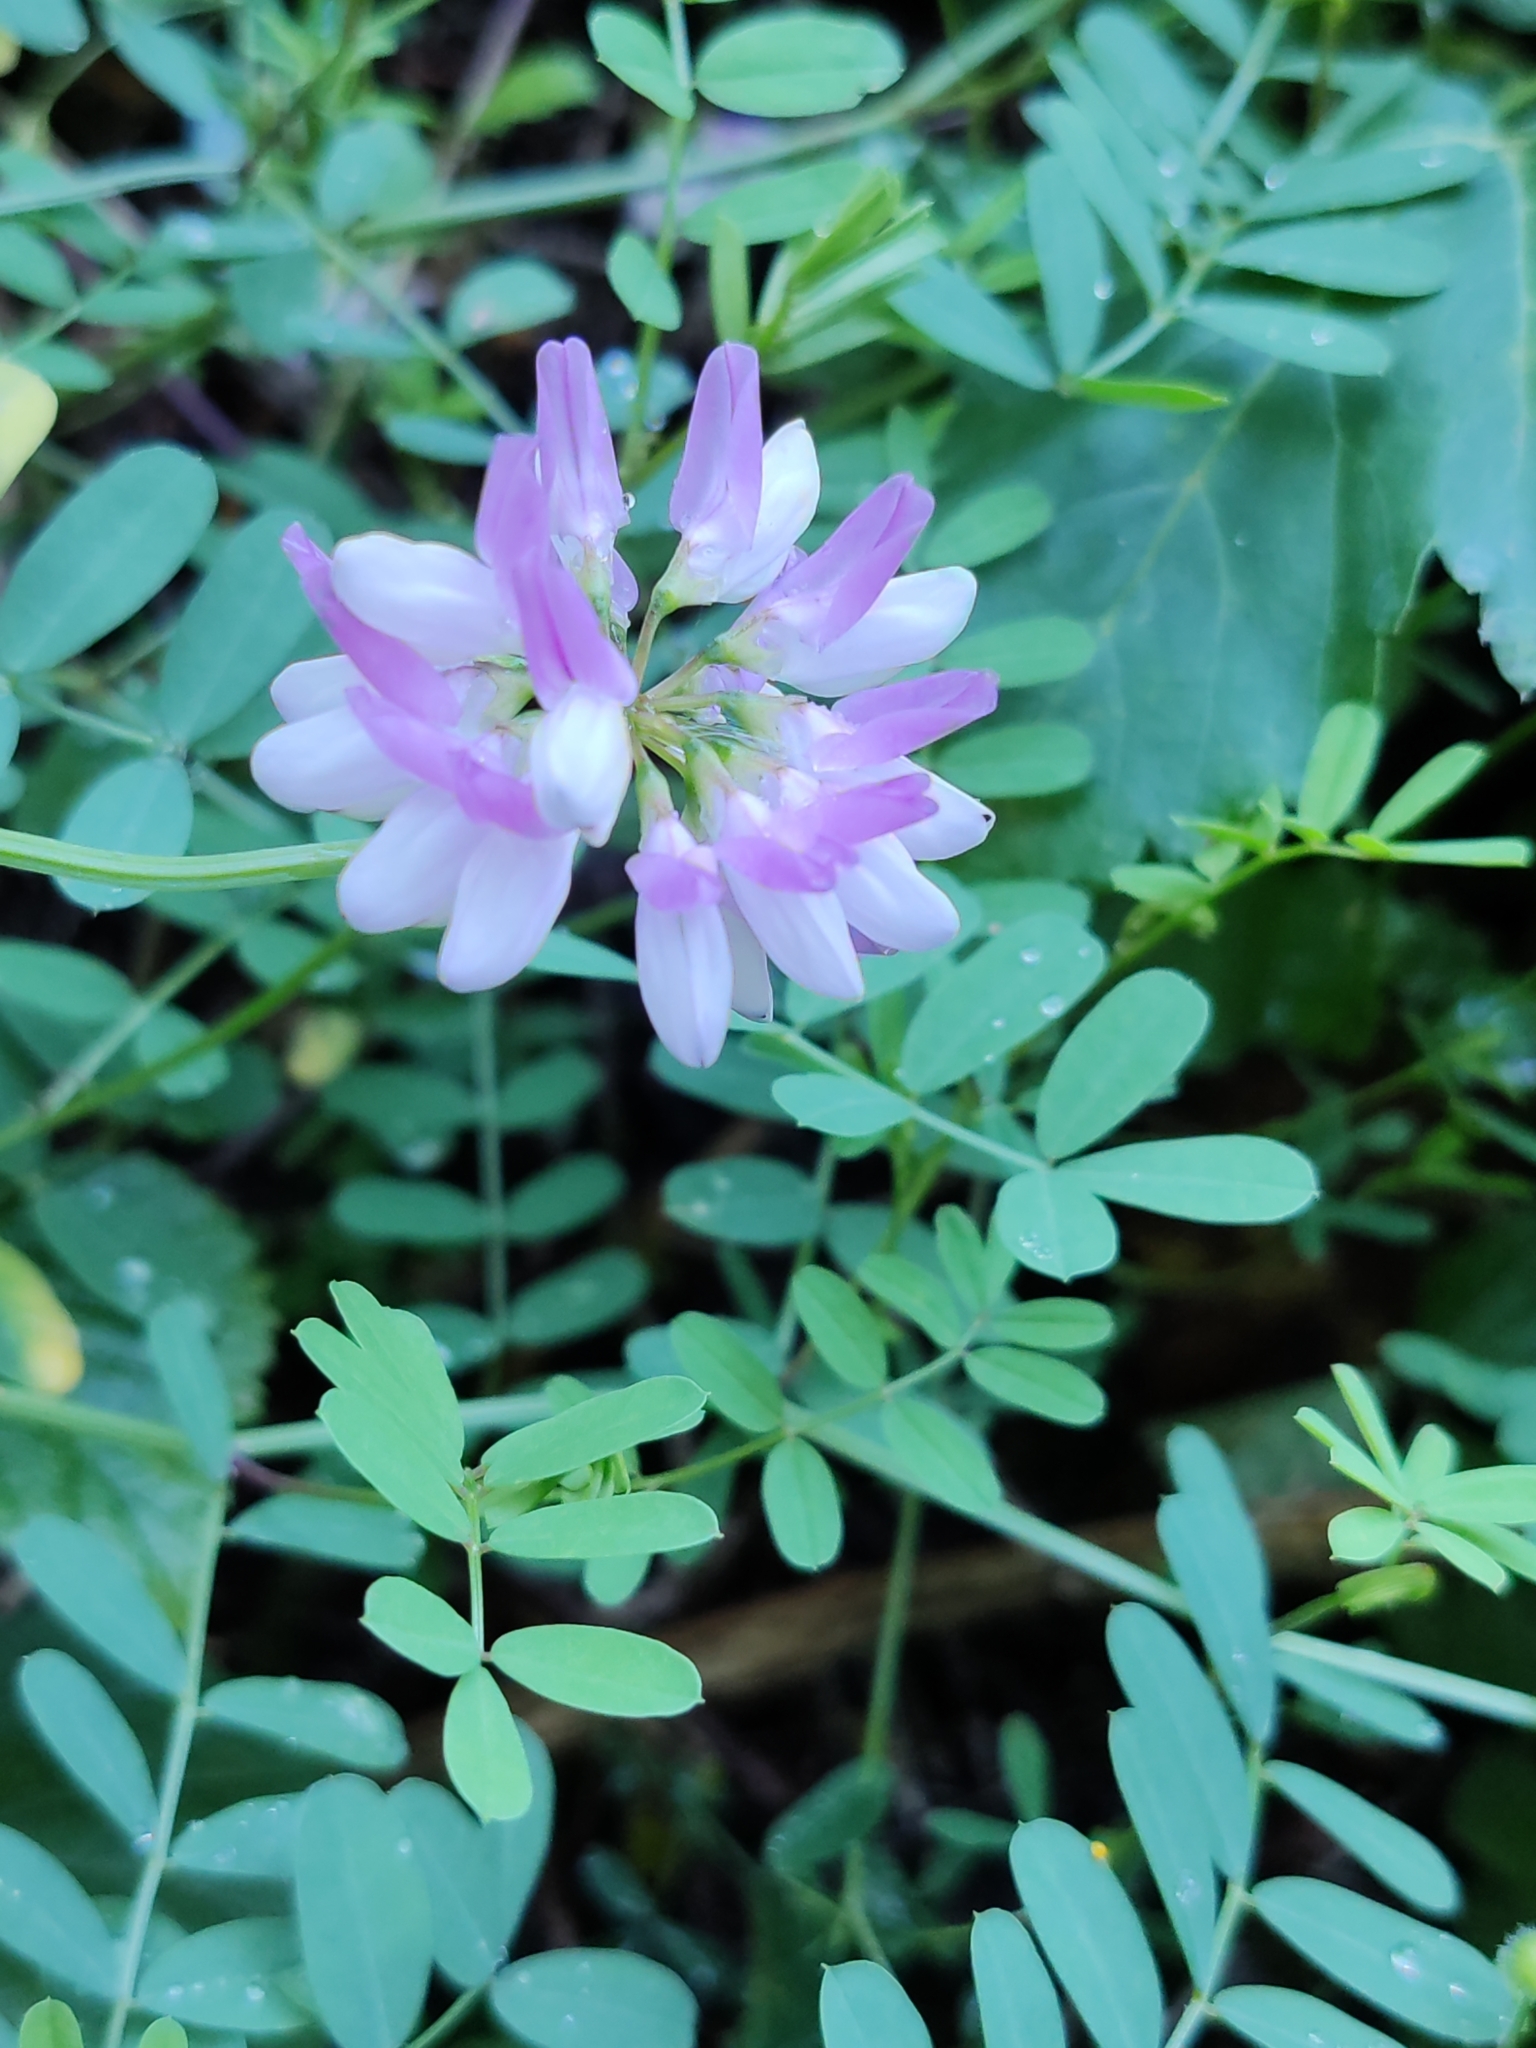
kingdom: Plantae
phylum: Tracheophyta
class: Magnoliopsida
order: Fabales
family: Fabaceae
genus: Coronilla
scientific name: Coronilla varia
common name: Crownvetch
